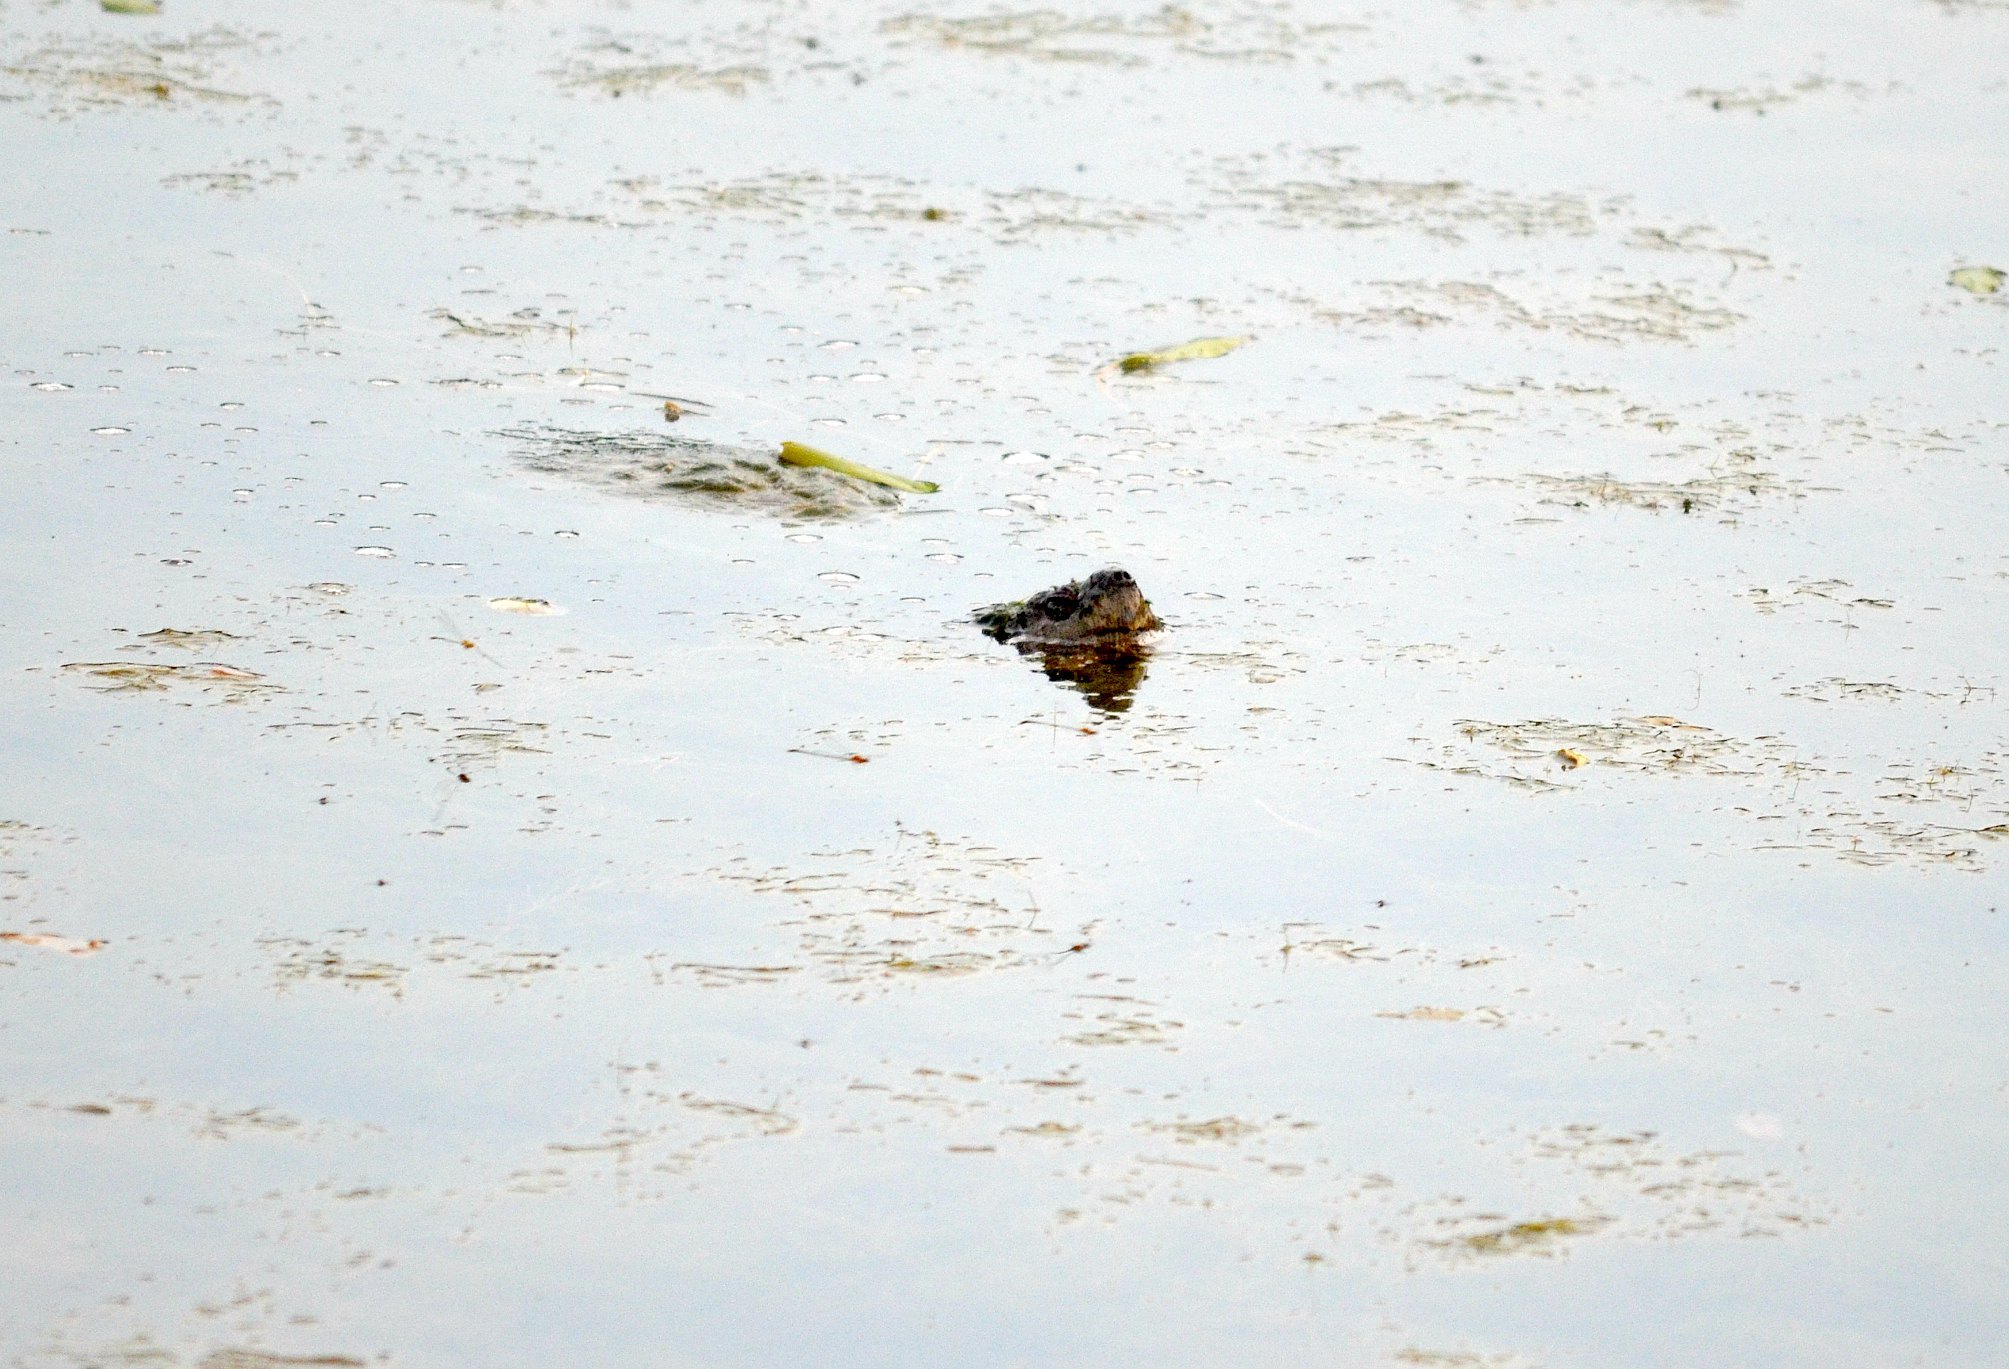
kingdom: Animalia
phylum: Chordata
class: Testudines
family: Chelydridae
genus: Chelydra
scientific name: Chelydra serpentina
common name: Common snapping turtle
